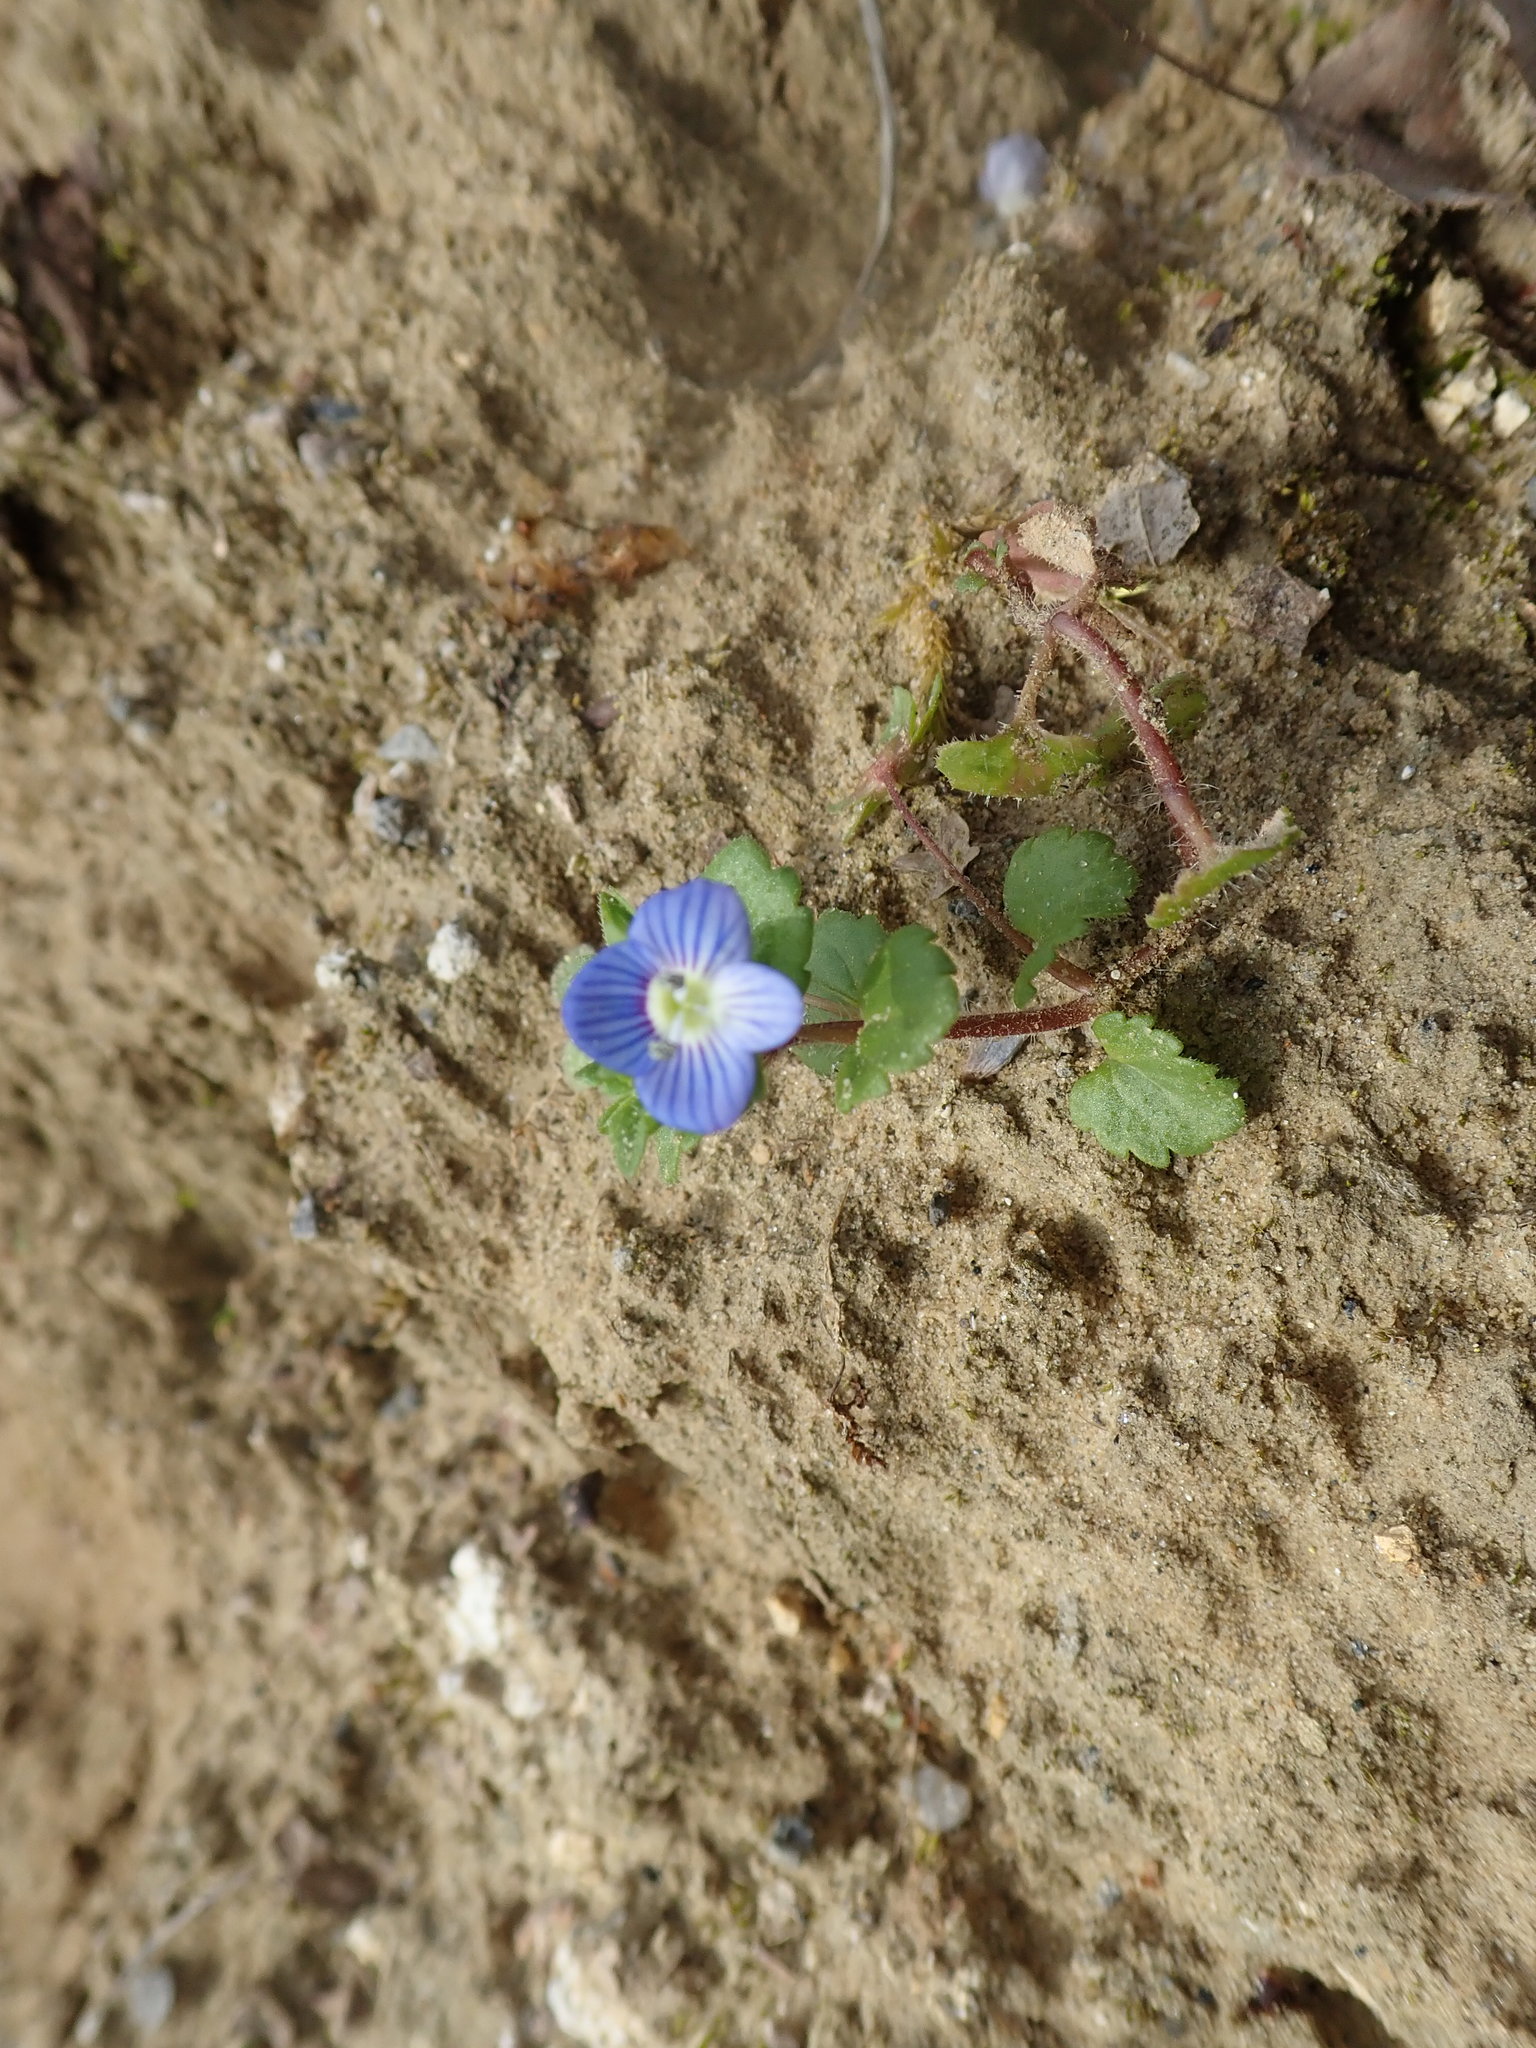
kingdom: Plantae
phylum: Tracheophyta
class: Magnoliopsida
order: Lamiales
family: Plantaginaceae
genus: Veronica
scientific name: Veronica persica
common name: Common field-speedwell
